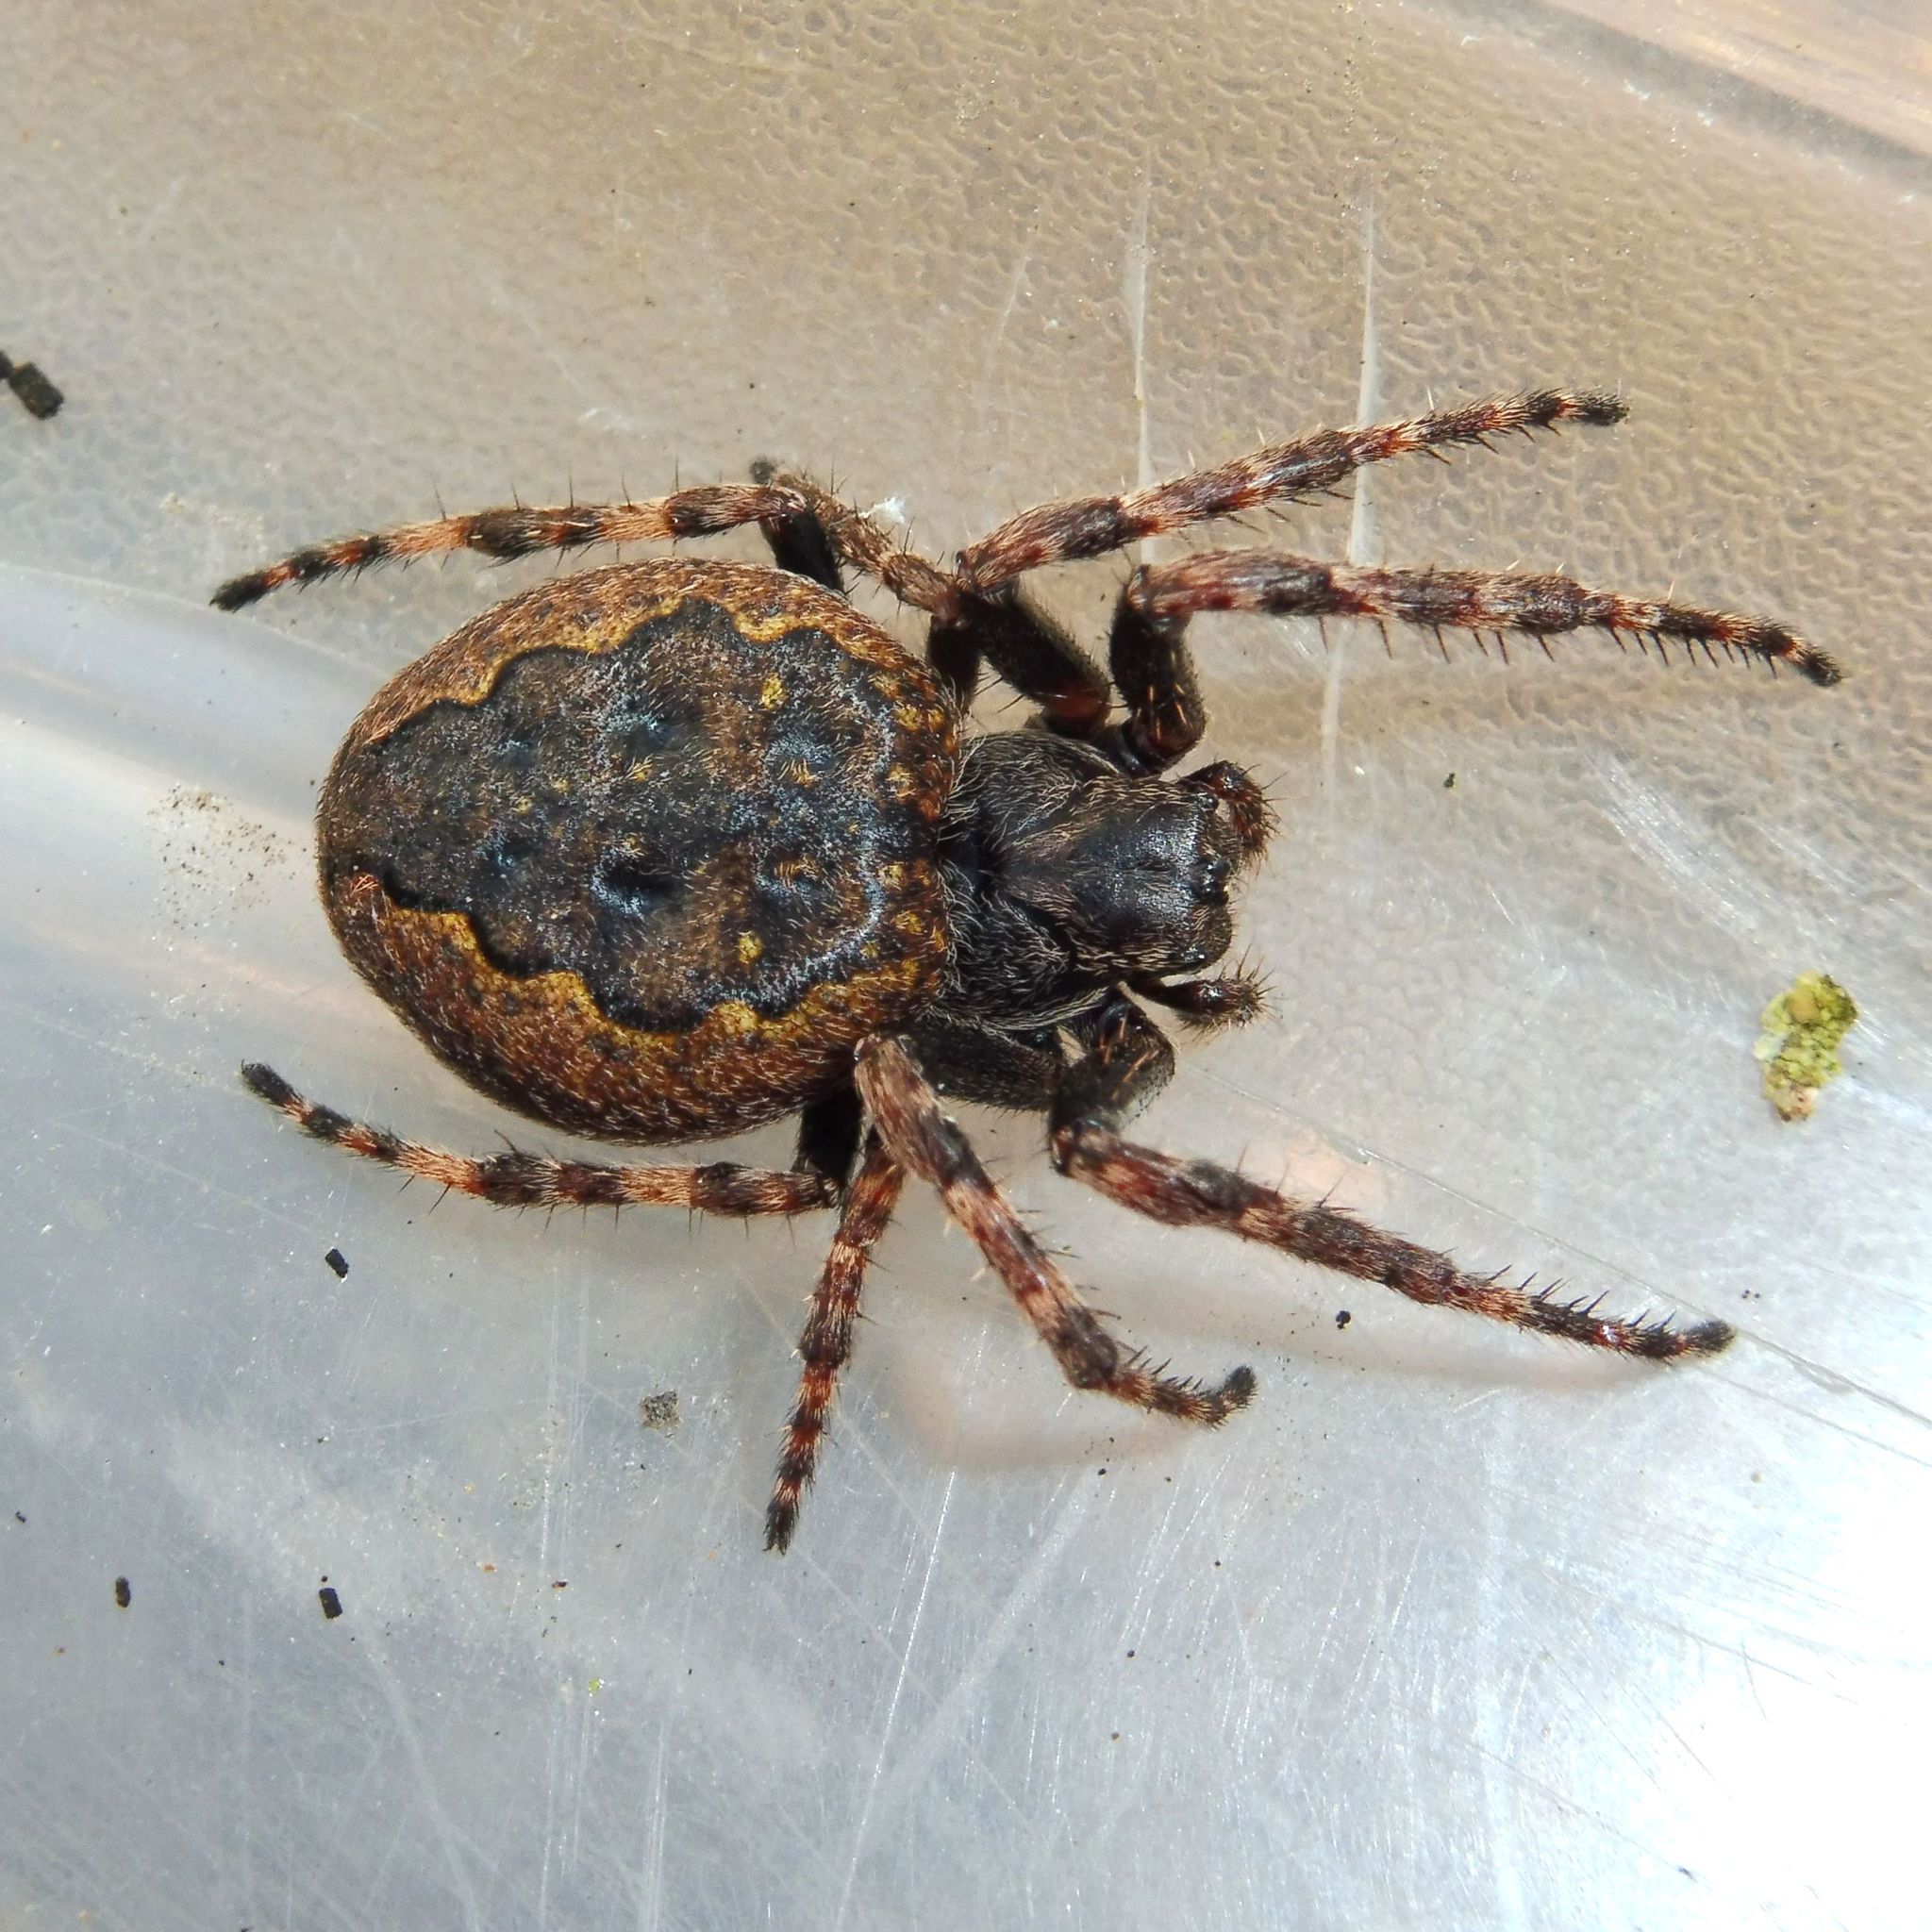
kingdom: Animalia
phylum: Arthropoda
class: Arachnida
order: Araneae
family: Araneidae
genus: Nuctenea
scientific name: Nuctenea umbratica
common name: Toad spider
